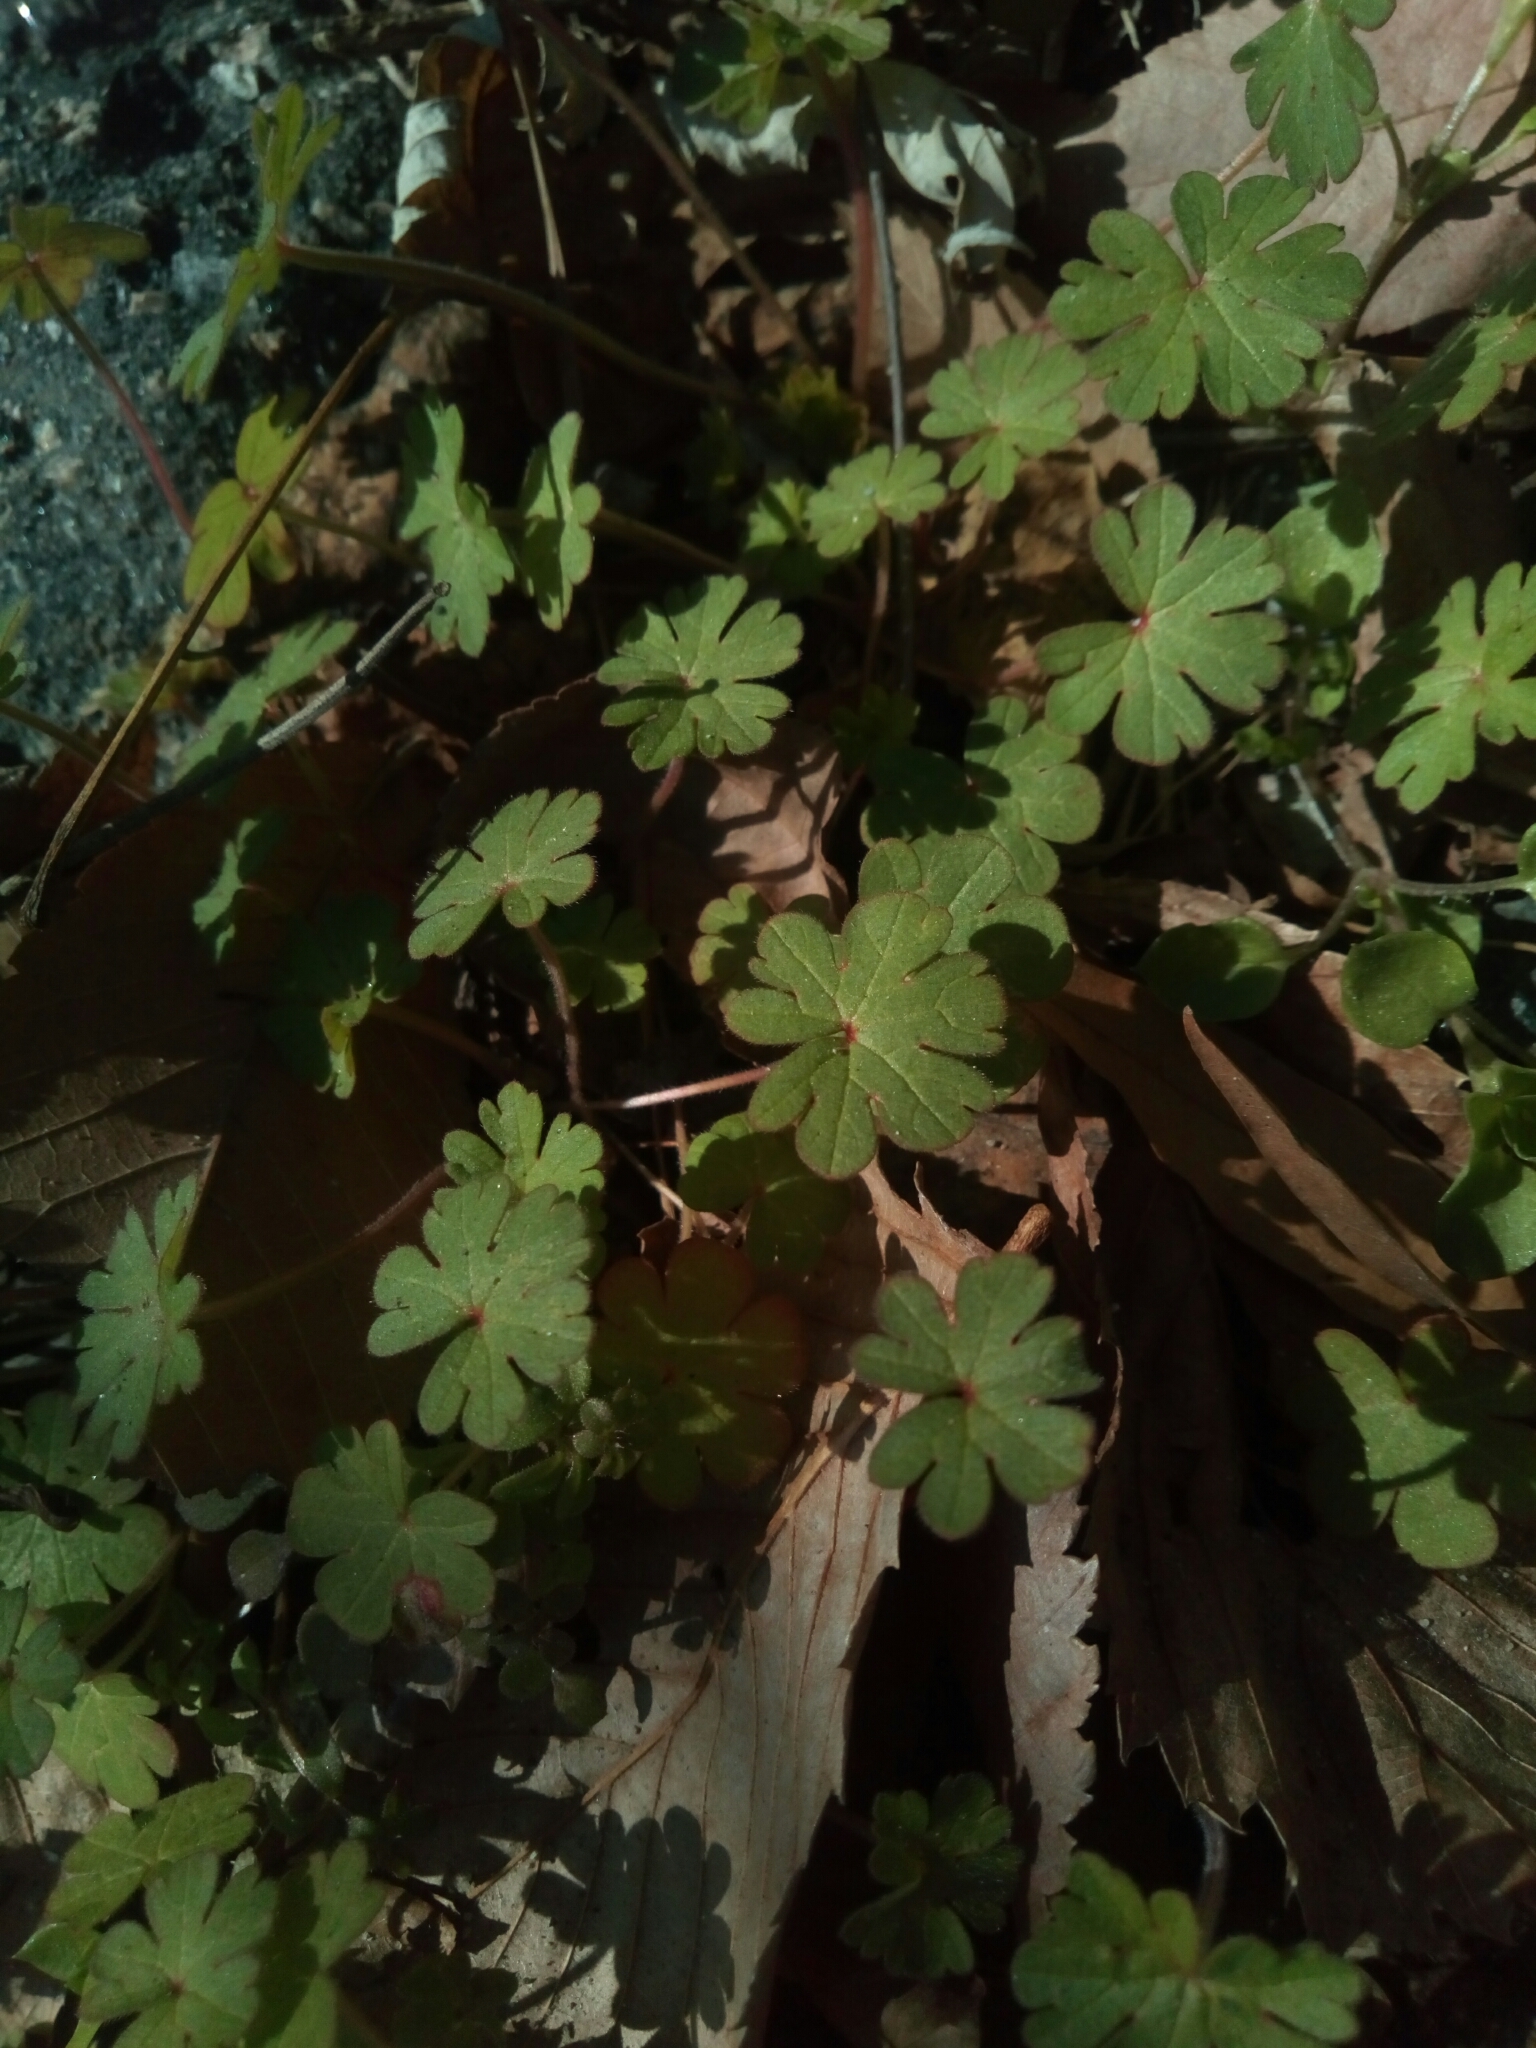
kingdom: Plantae
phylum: Tracheophyta
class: Magnoliopsida
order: Geraniales
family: Geraniaceae
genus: Geranium
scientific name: Geranium carolinianum
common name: Carolina crane's-bill
